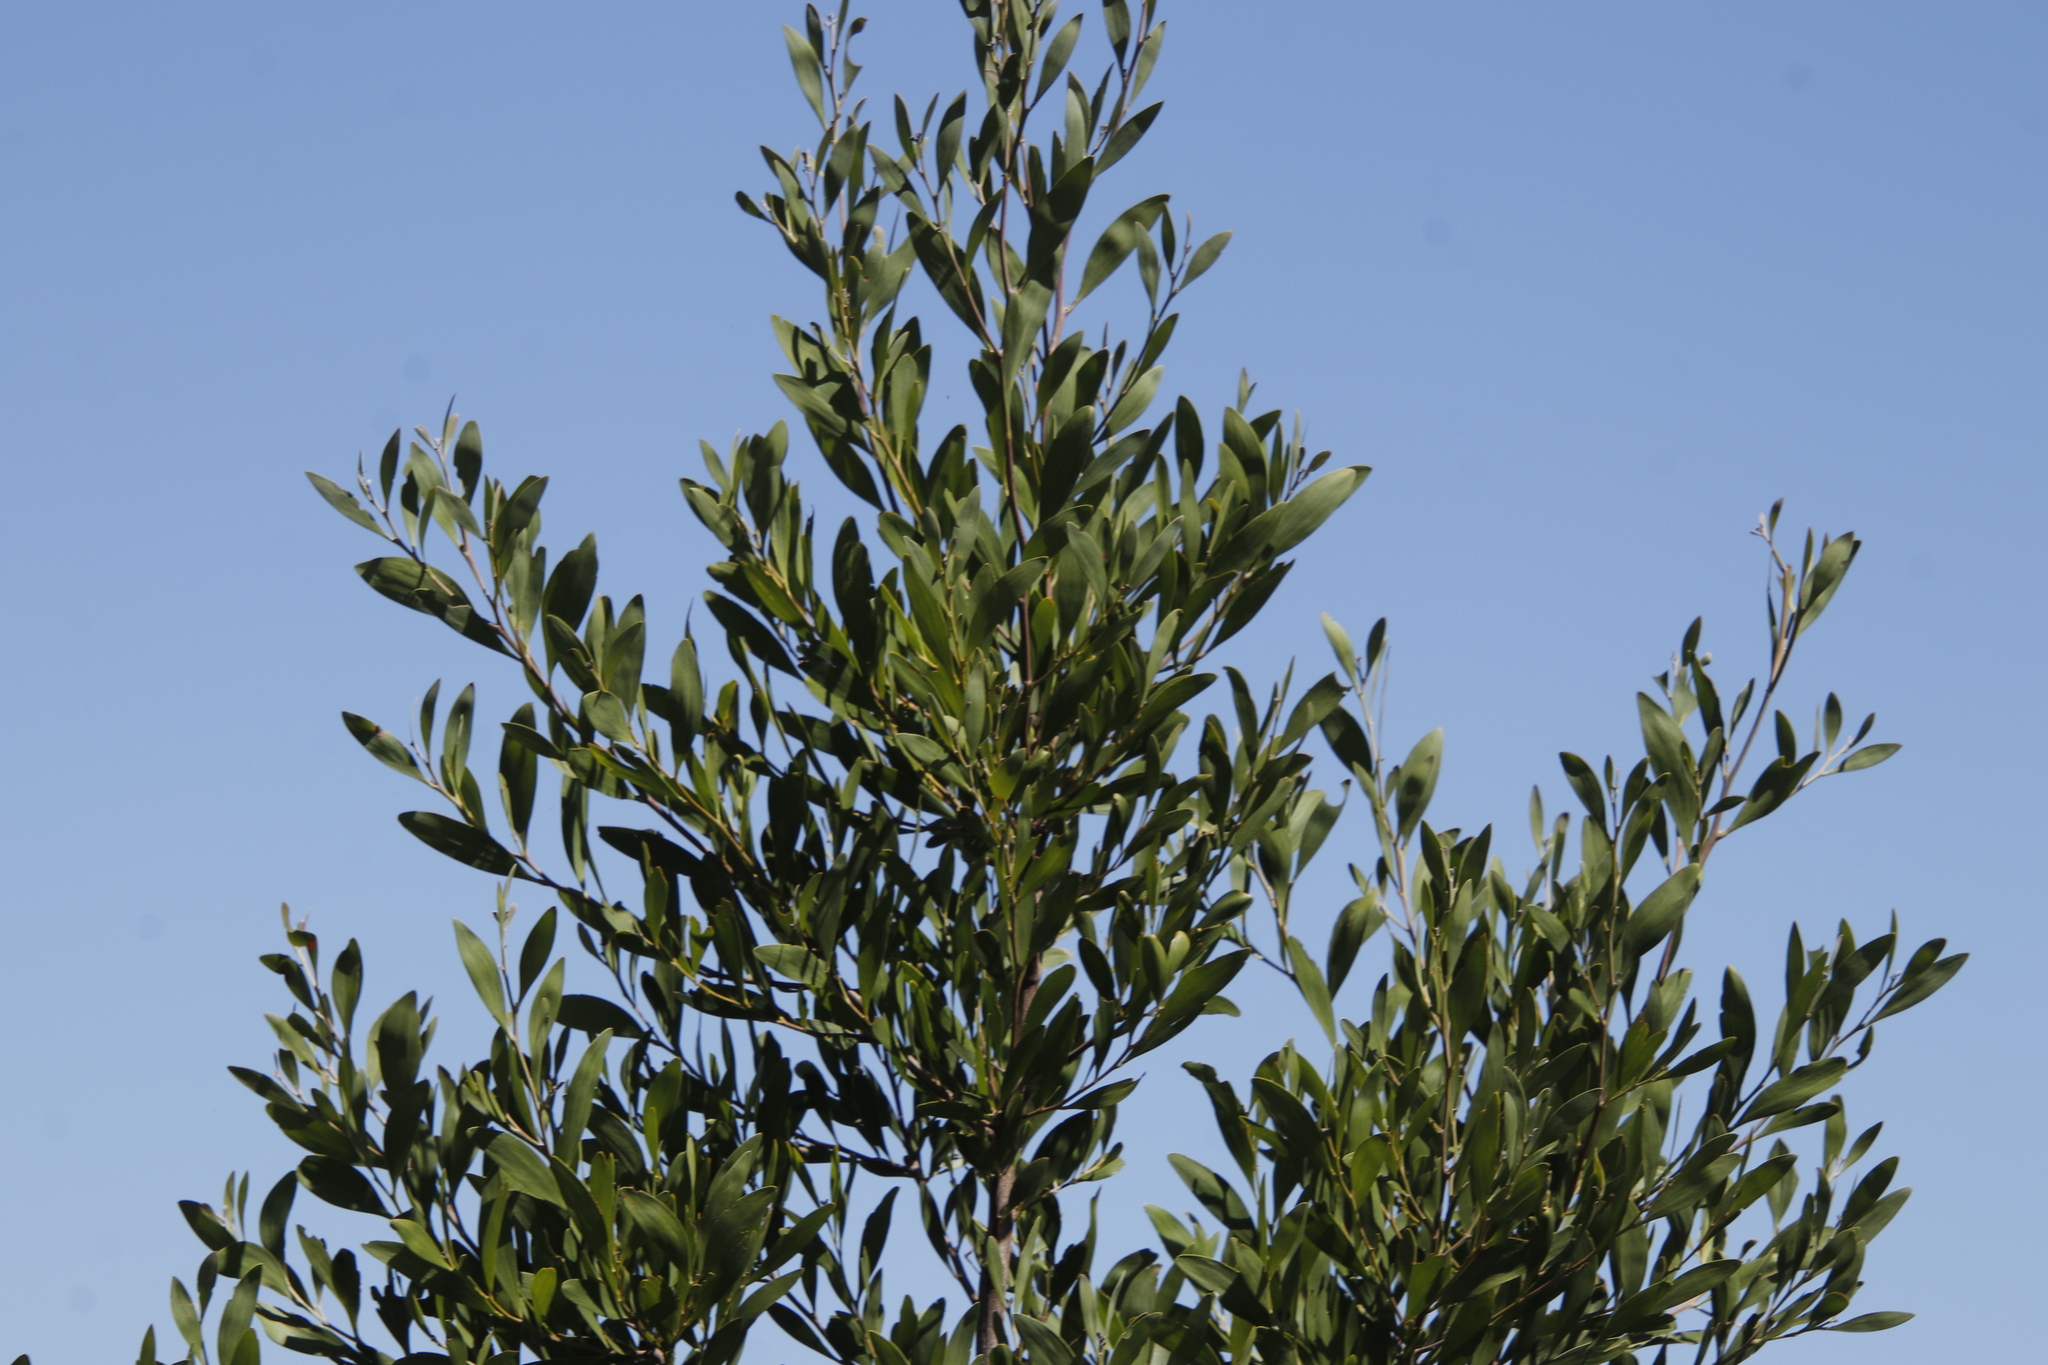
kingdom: Plantae
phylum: Tracheophyta
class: Magnoliopsida
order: Fabales
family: Fabaceae
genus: Acacia
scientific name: Acacia melanoxylon
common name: Blackwood
